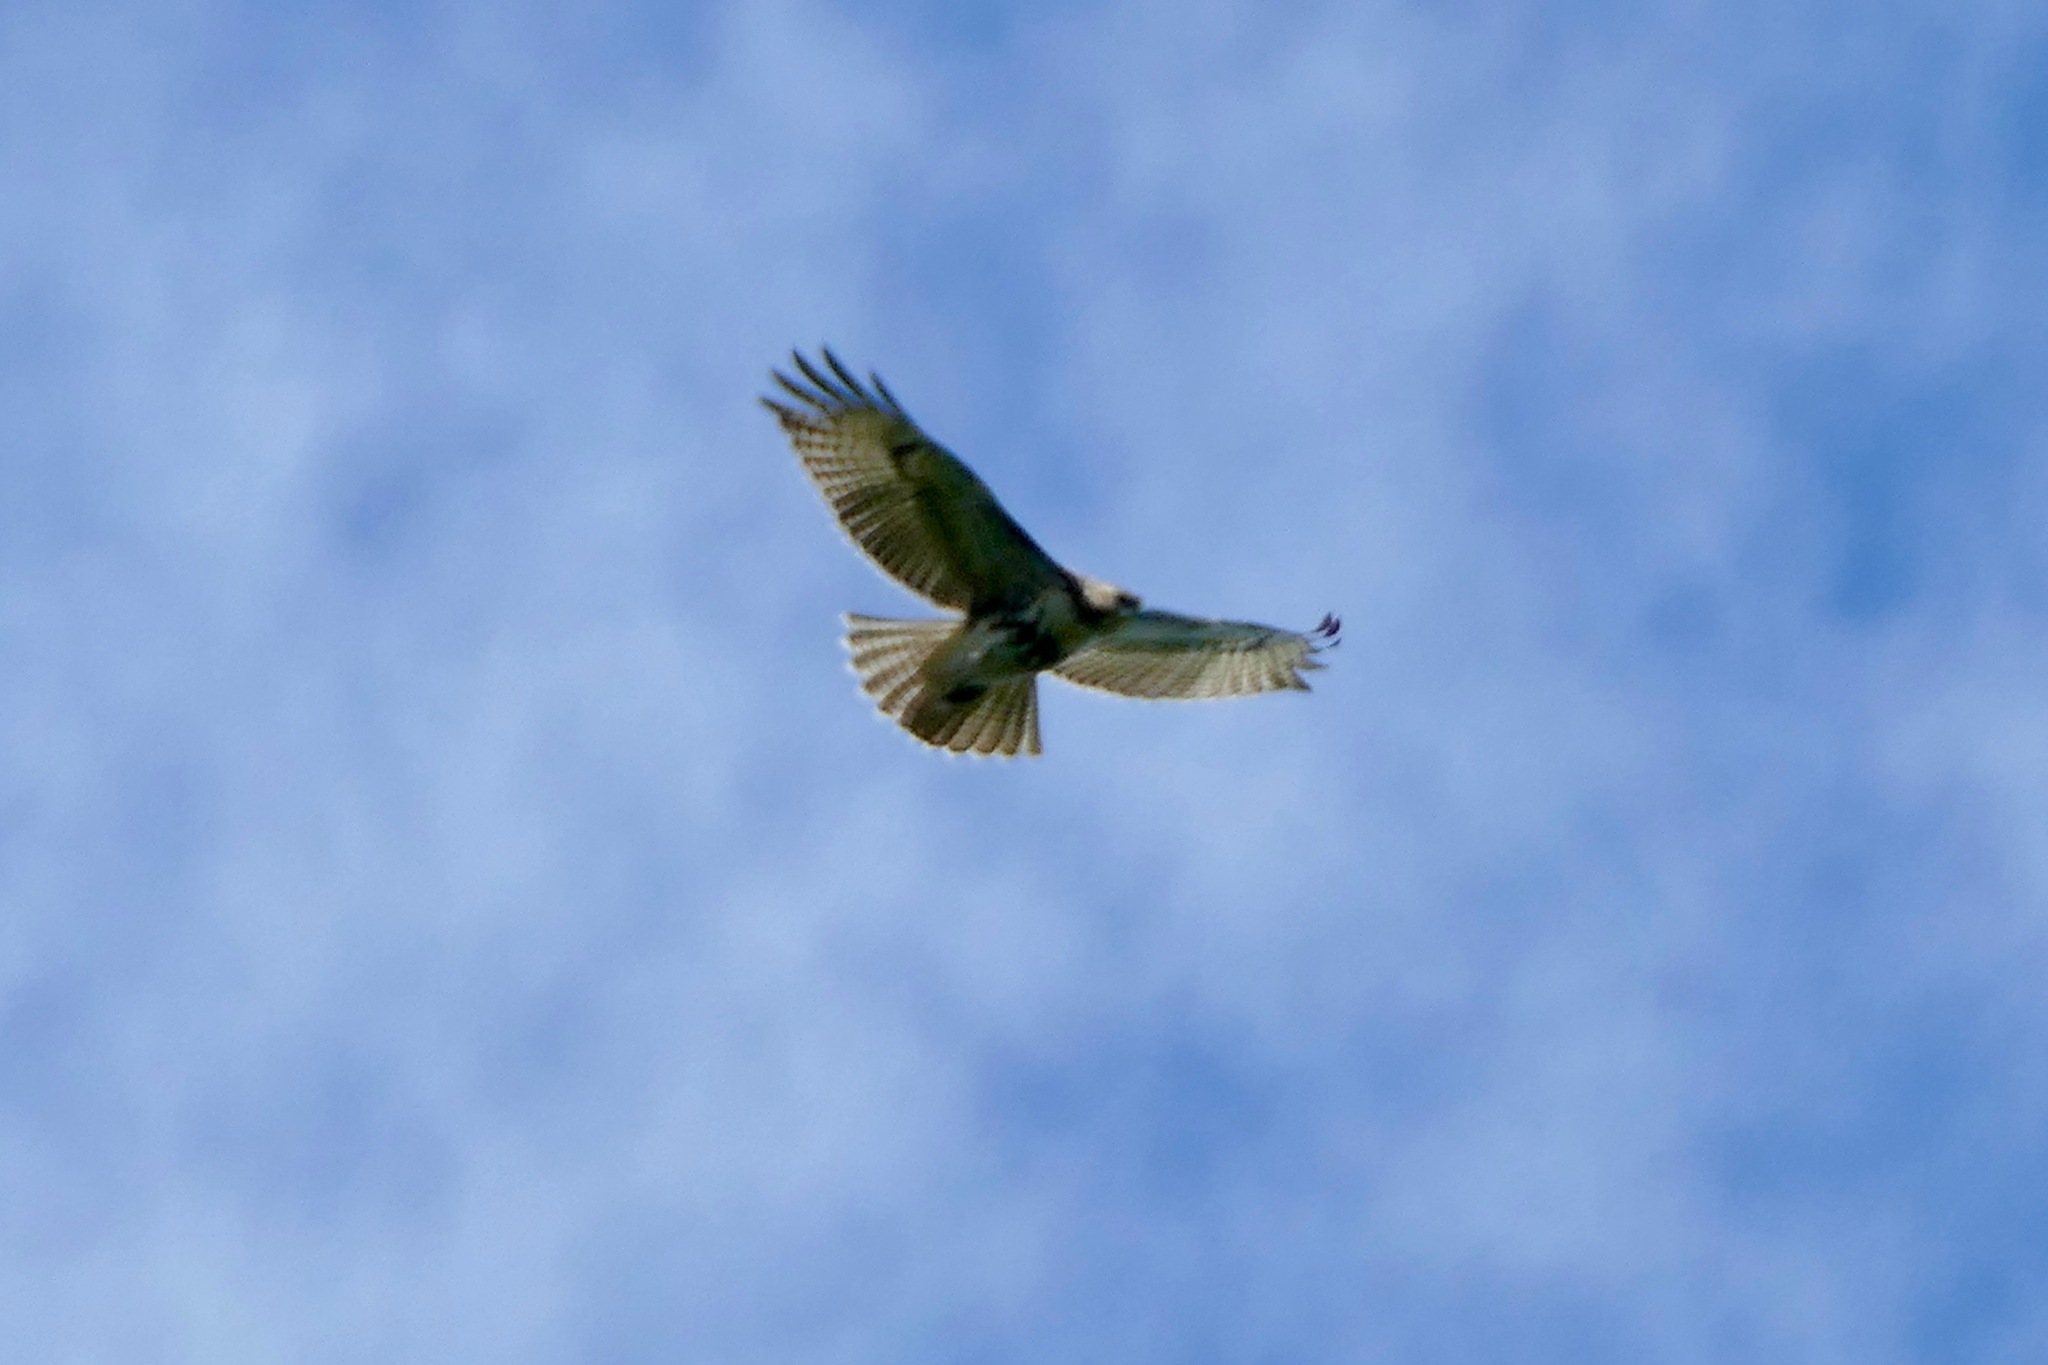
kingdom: Animalia
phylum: Chordata
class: Aves
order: Accipitriformes
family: Accipitridae
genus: Buteo
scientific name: Buteo jamaicensis
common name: Red-tailed hawk
